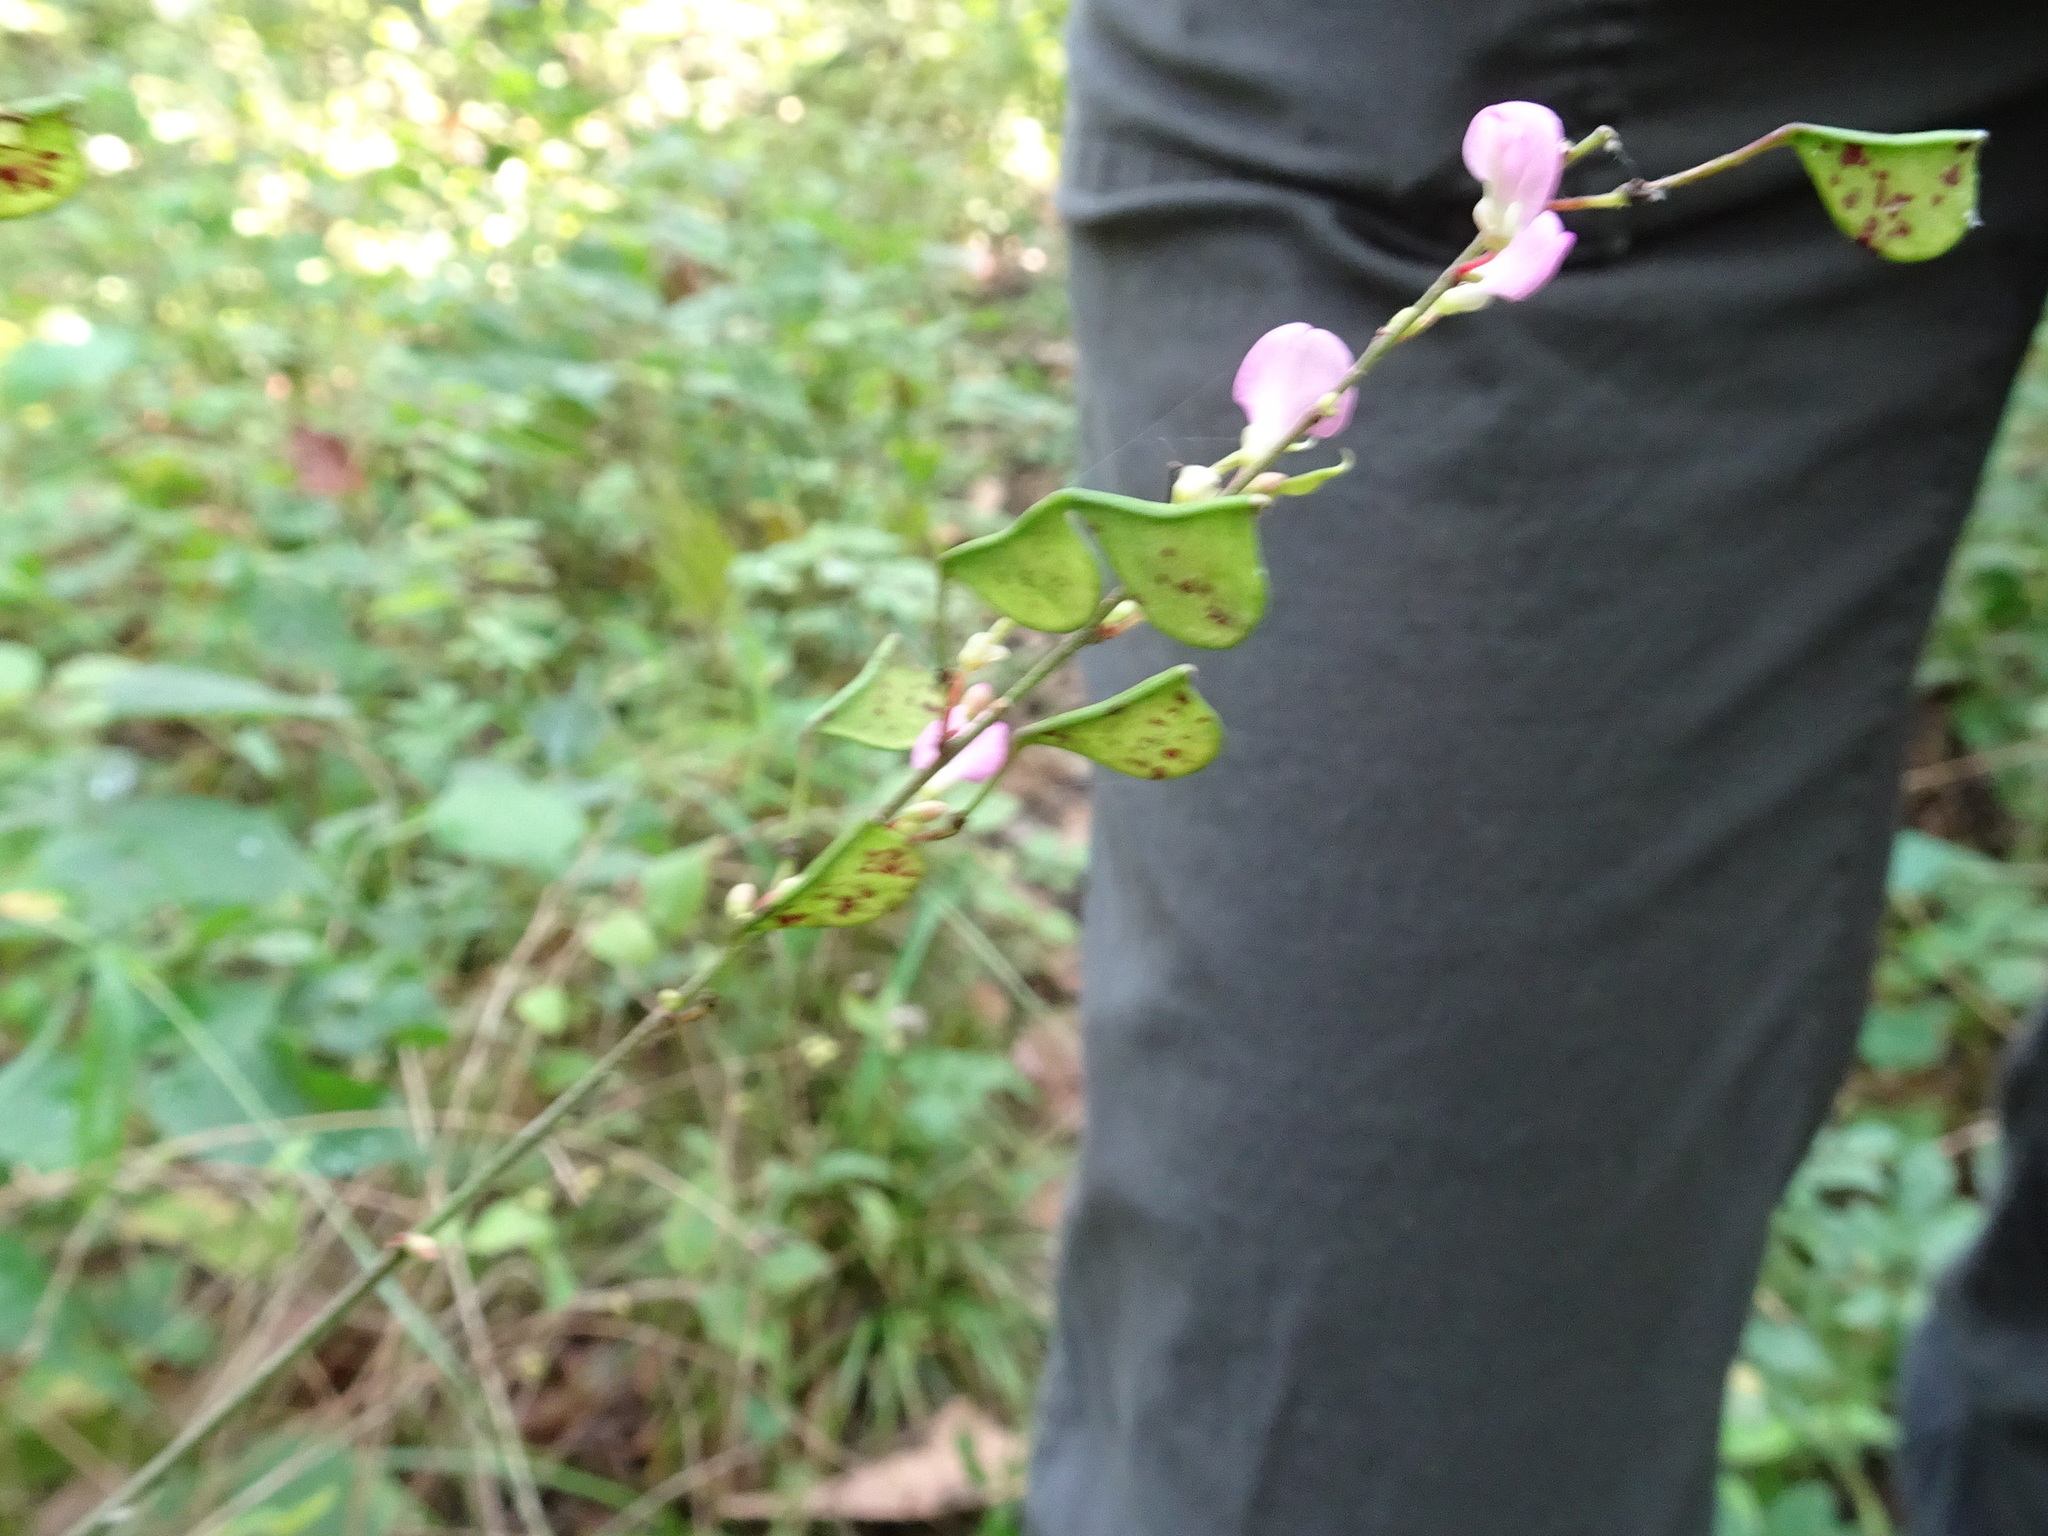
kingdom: Plantae
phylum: Tracheophyta
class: Magnoliopsida
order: Fabales
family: Fabaceae
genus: Hylodesmum
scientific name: Hylodesmum glutinosum
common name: Clustered-leaved tick-trefoil
